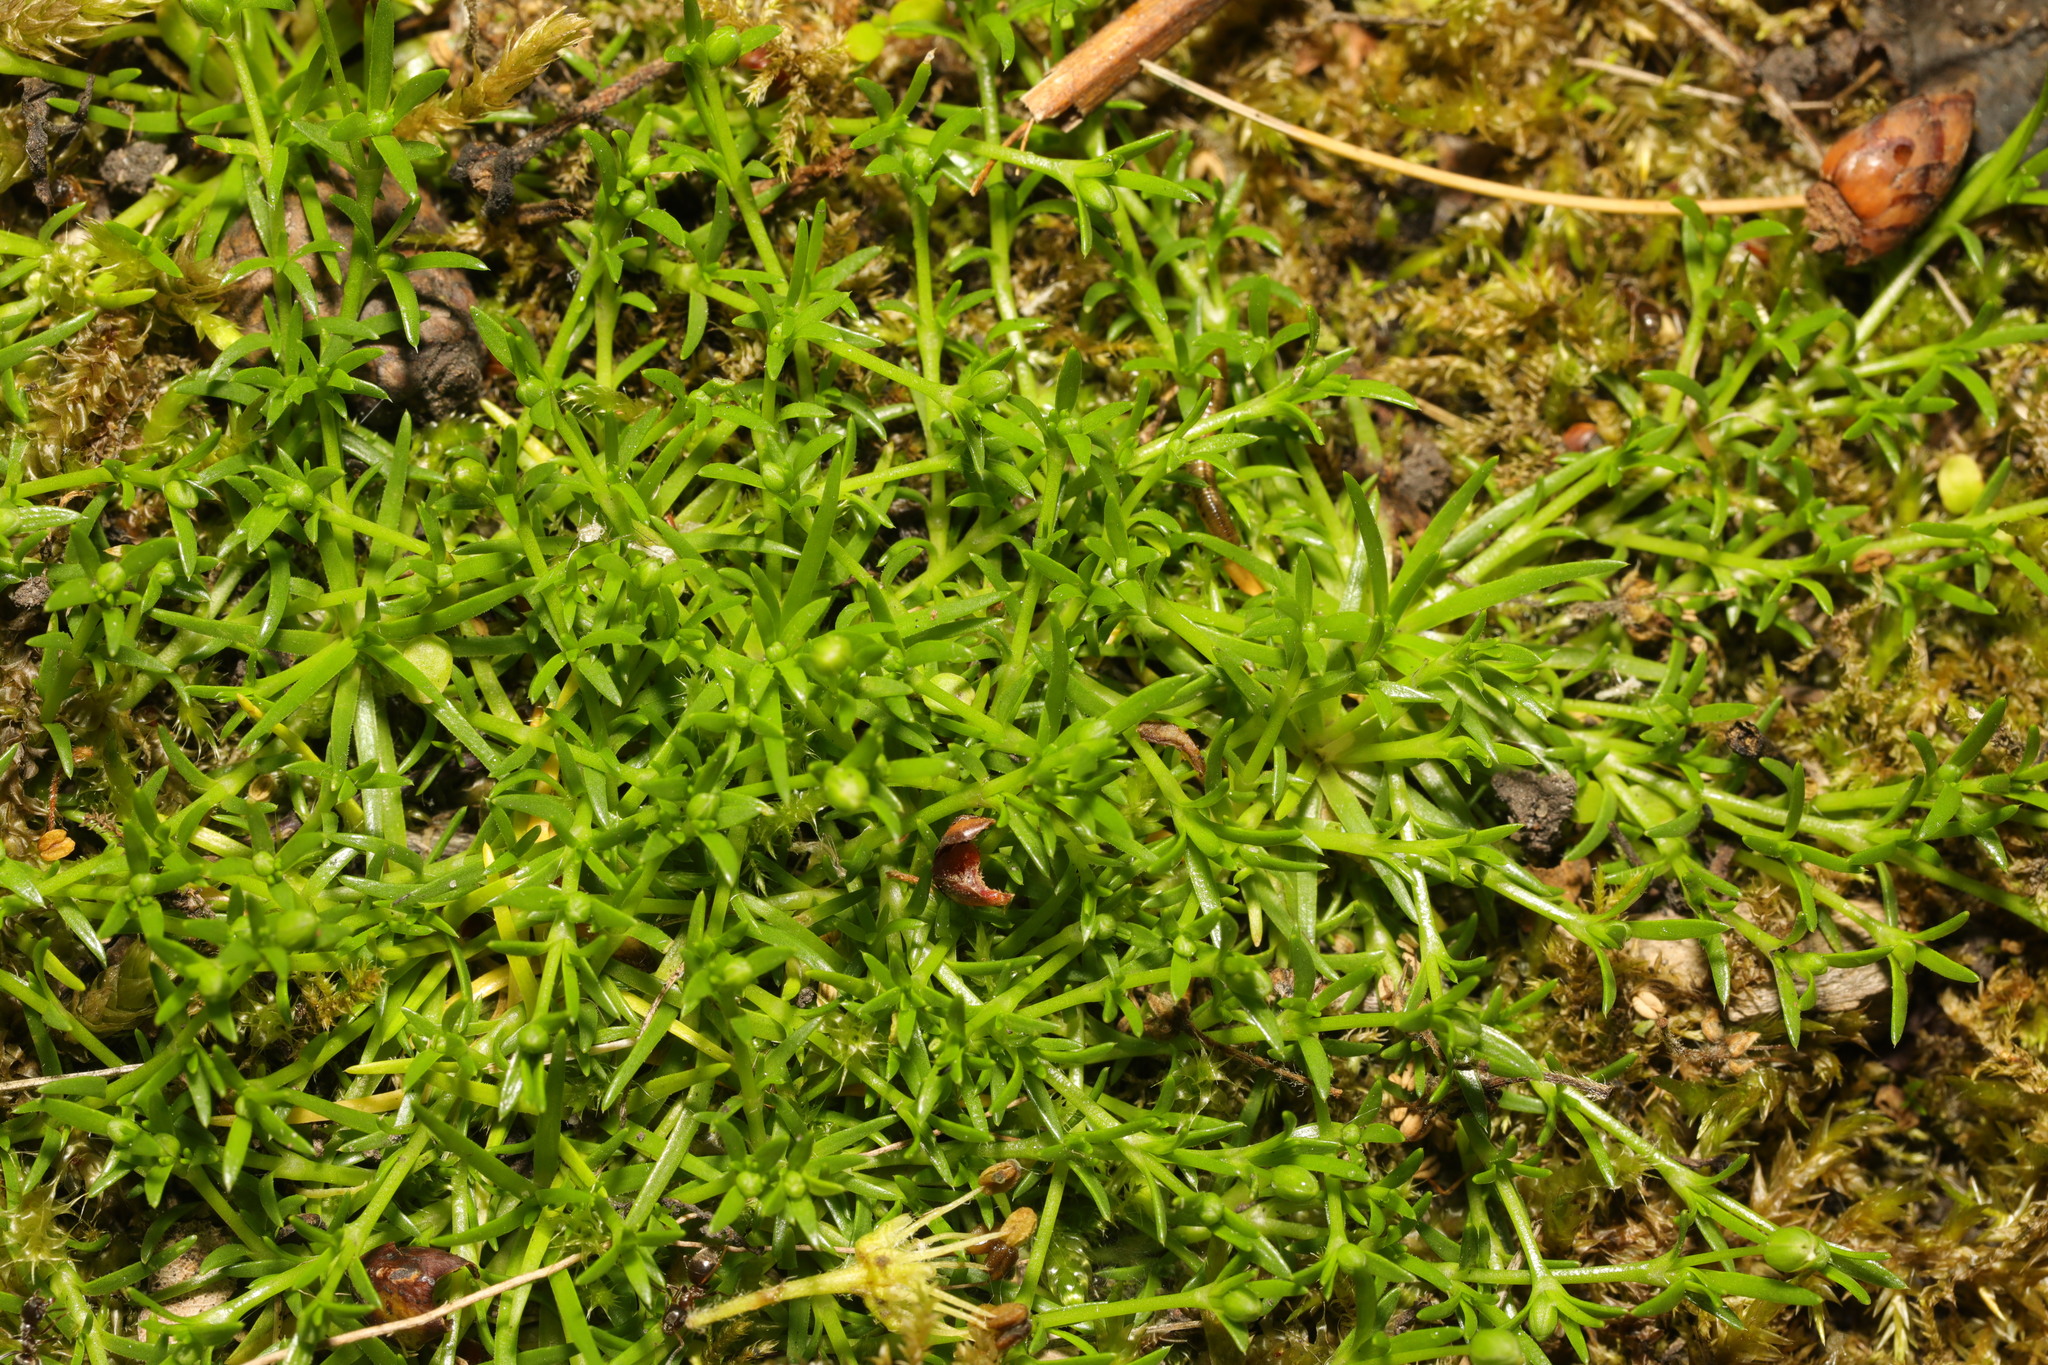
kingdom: Plantae
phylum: Tracheophyta
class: Magnoliopsida
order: Caryophyllales
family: Caryophyllaceae
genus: Sagina
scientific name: Sagina procumbens
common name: Procumbent pearlwort
